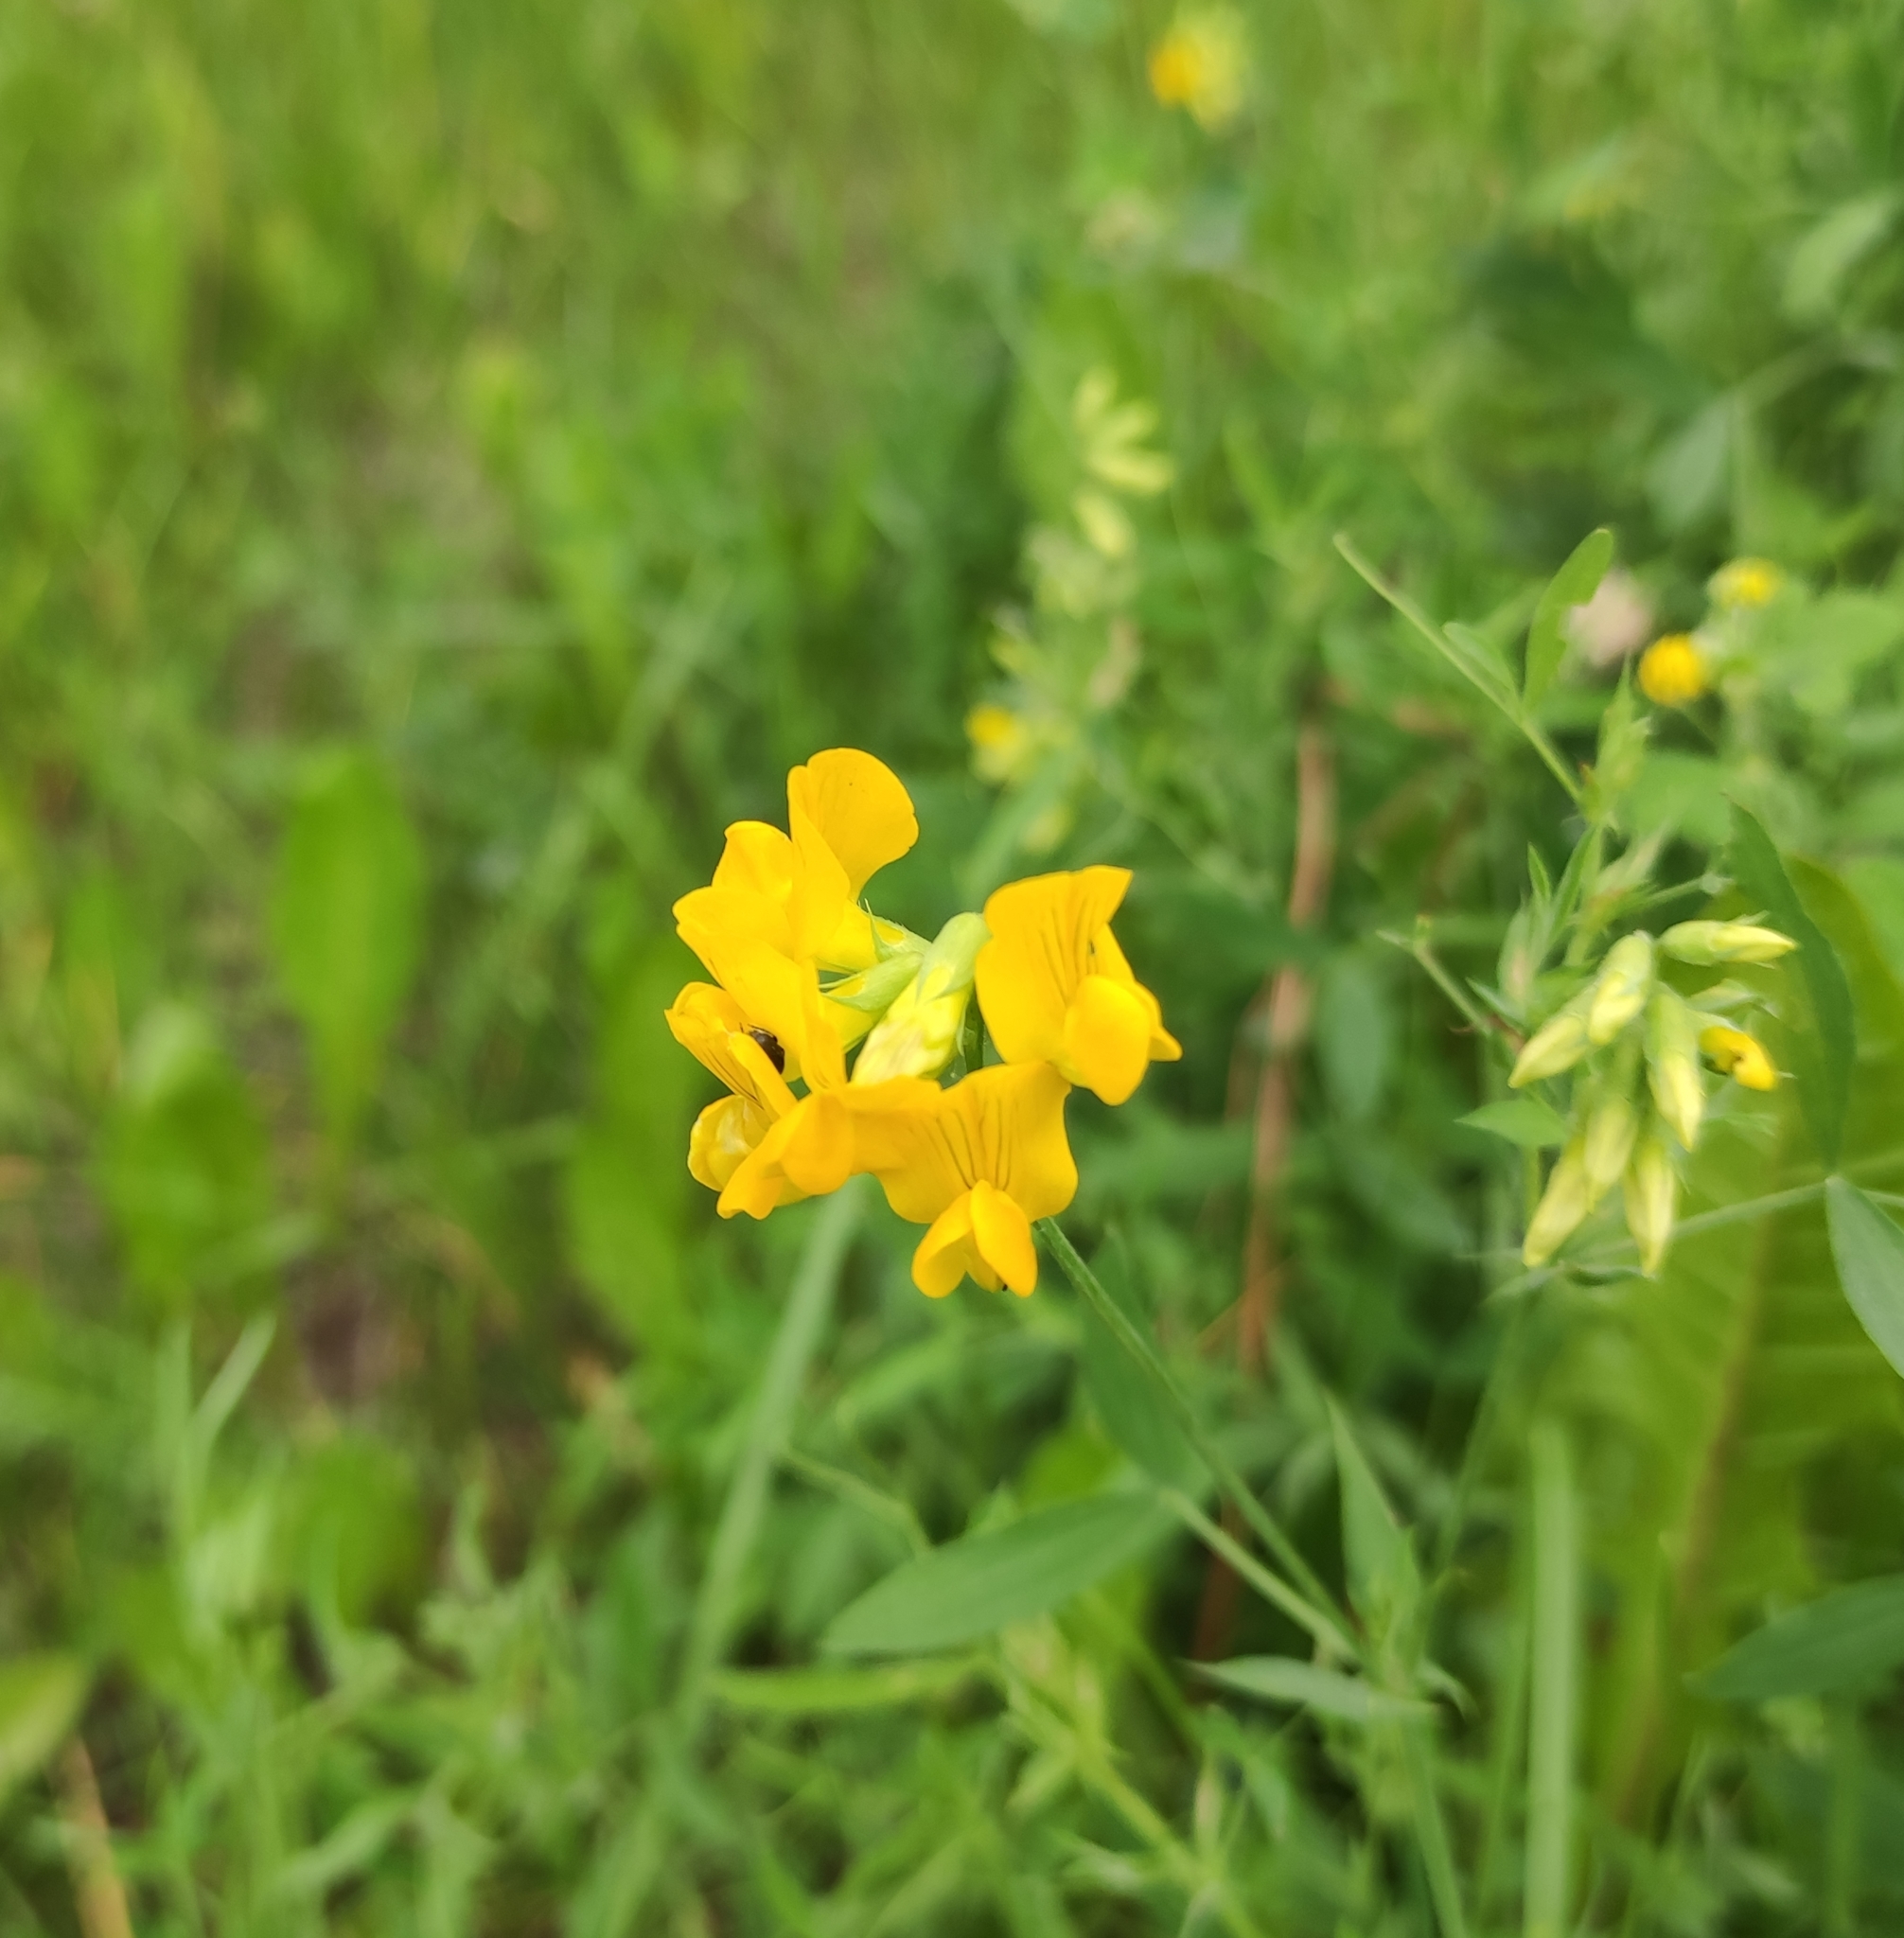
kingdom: Plantae
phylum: Tracheophyta
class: Magnoliopsida
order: Fabales
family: Fabaceae
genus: Lathyrus
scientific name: Lathyrus pratensis
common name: Meadow vetchling
